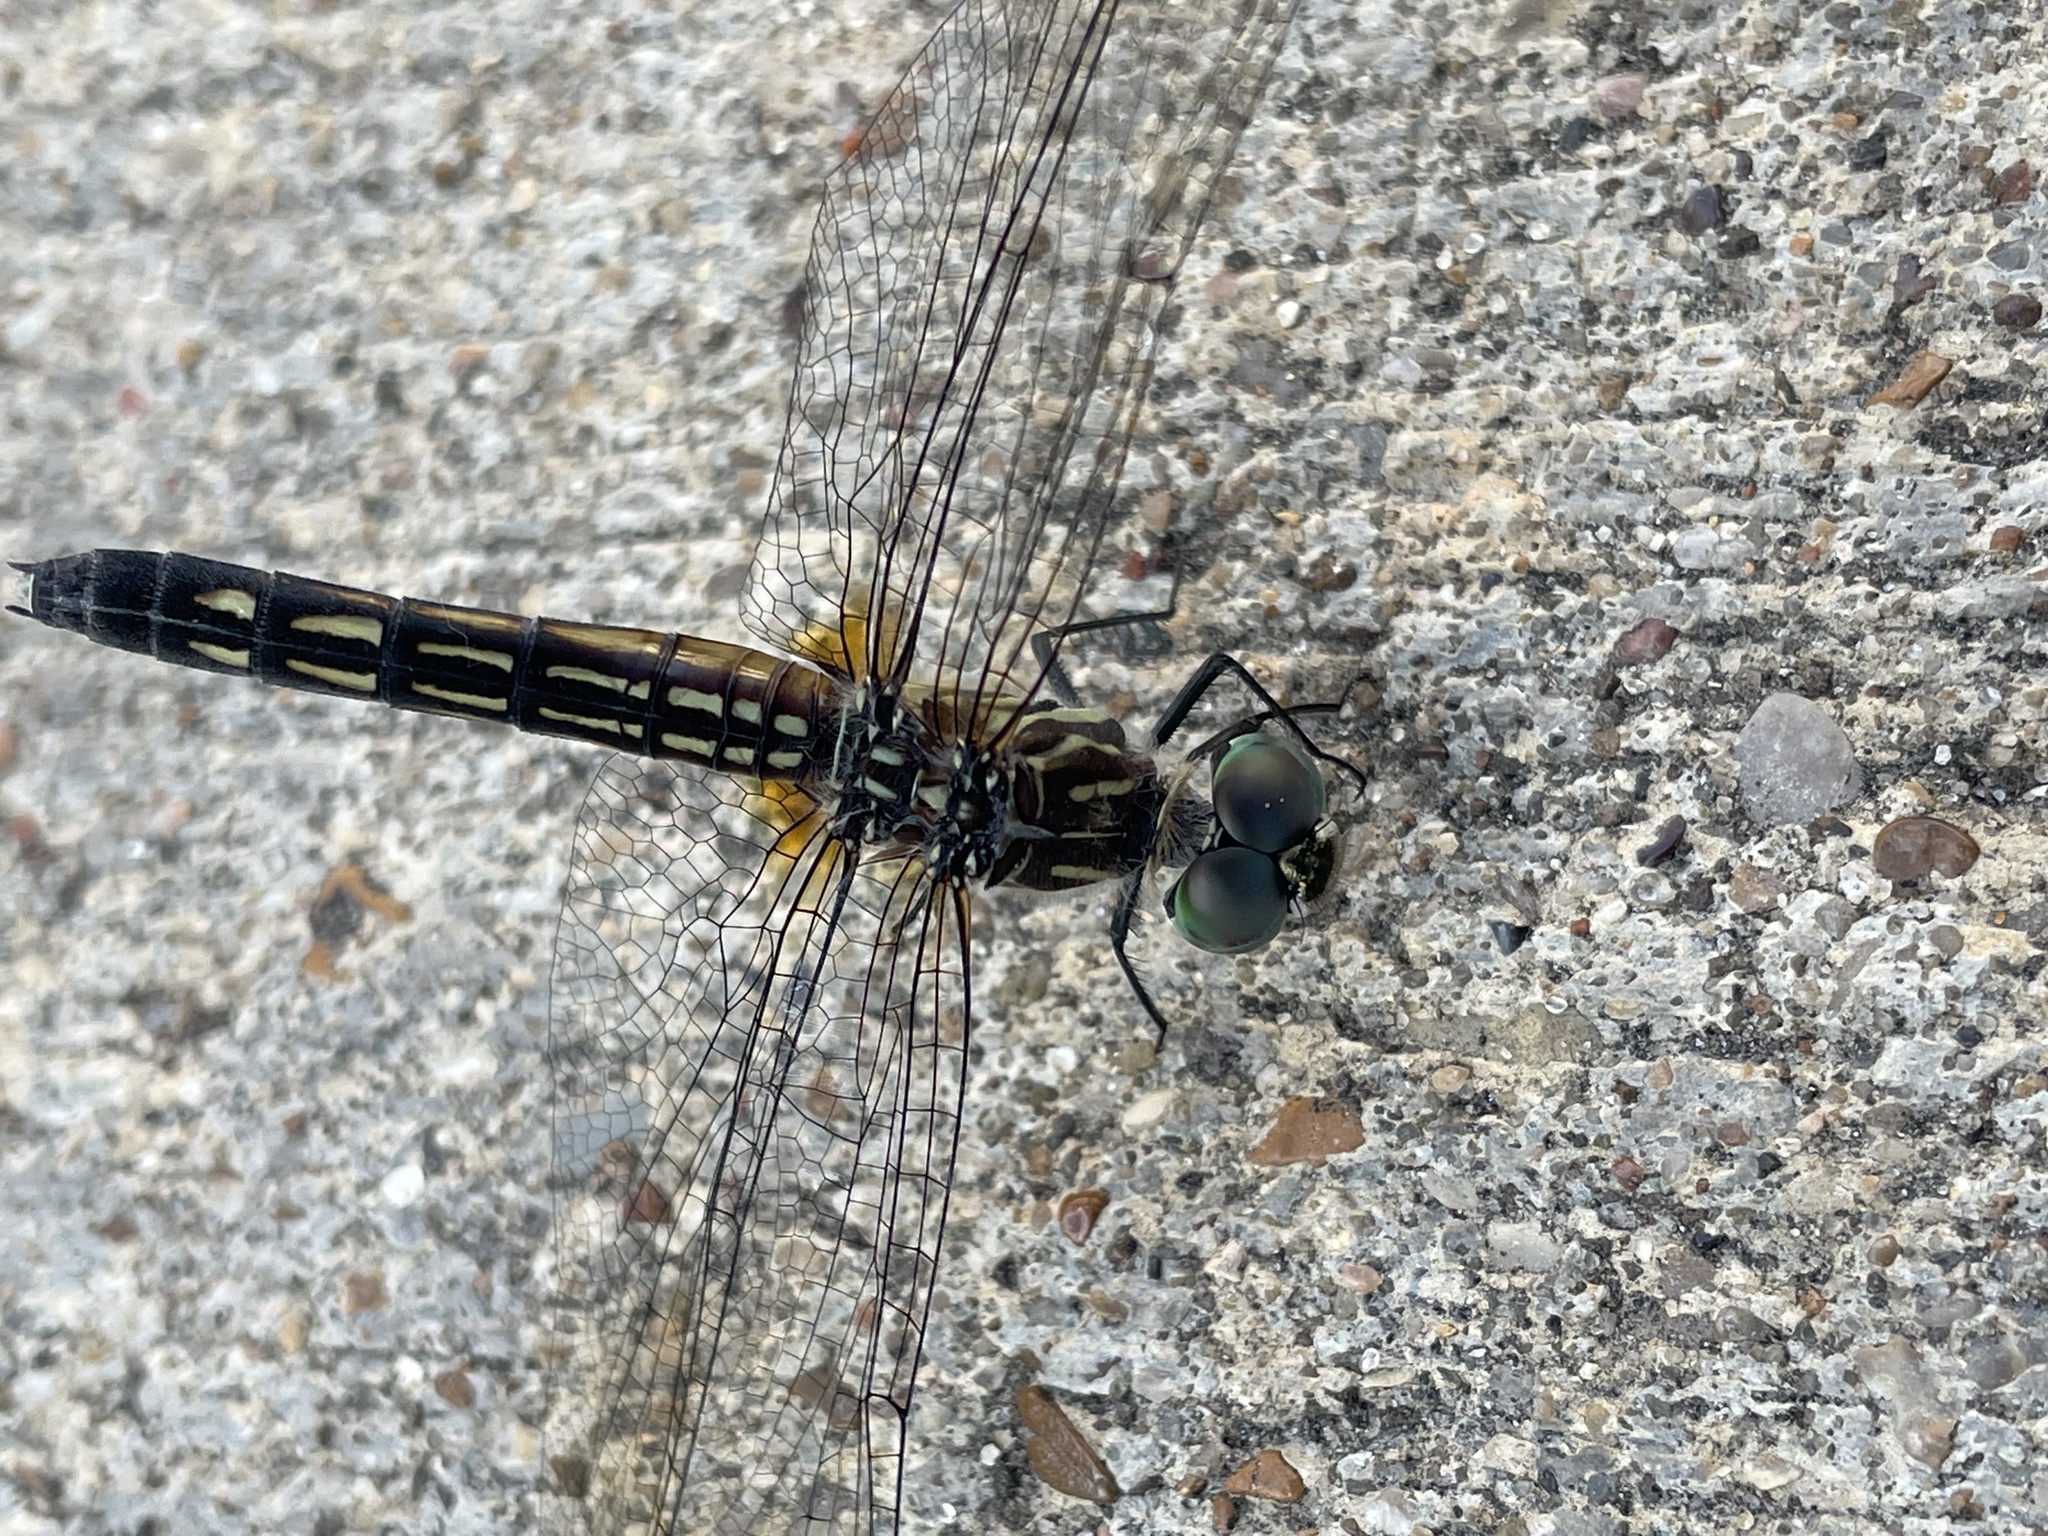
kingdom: Animalia
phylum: Arthropoda
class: Insecta
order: Odonata
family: Libellulidae
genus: Pachydiplax
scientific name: Pachydiplax longipennis
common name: Blue dasher
